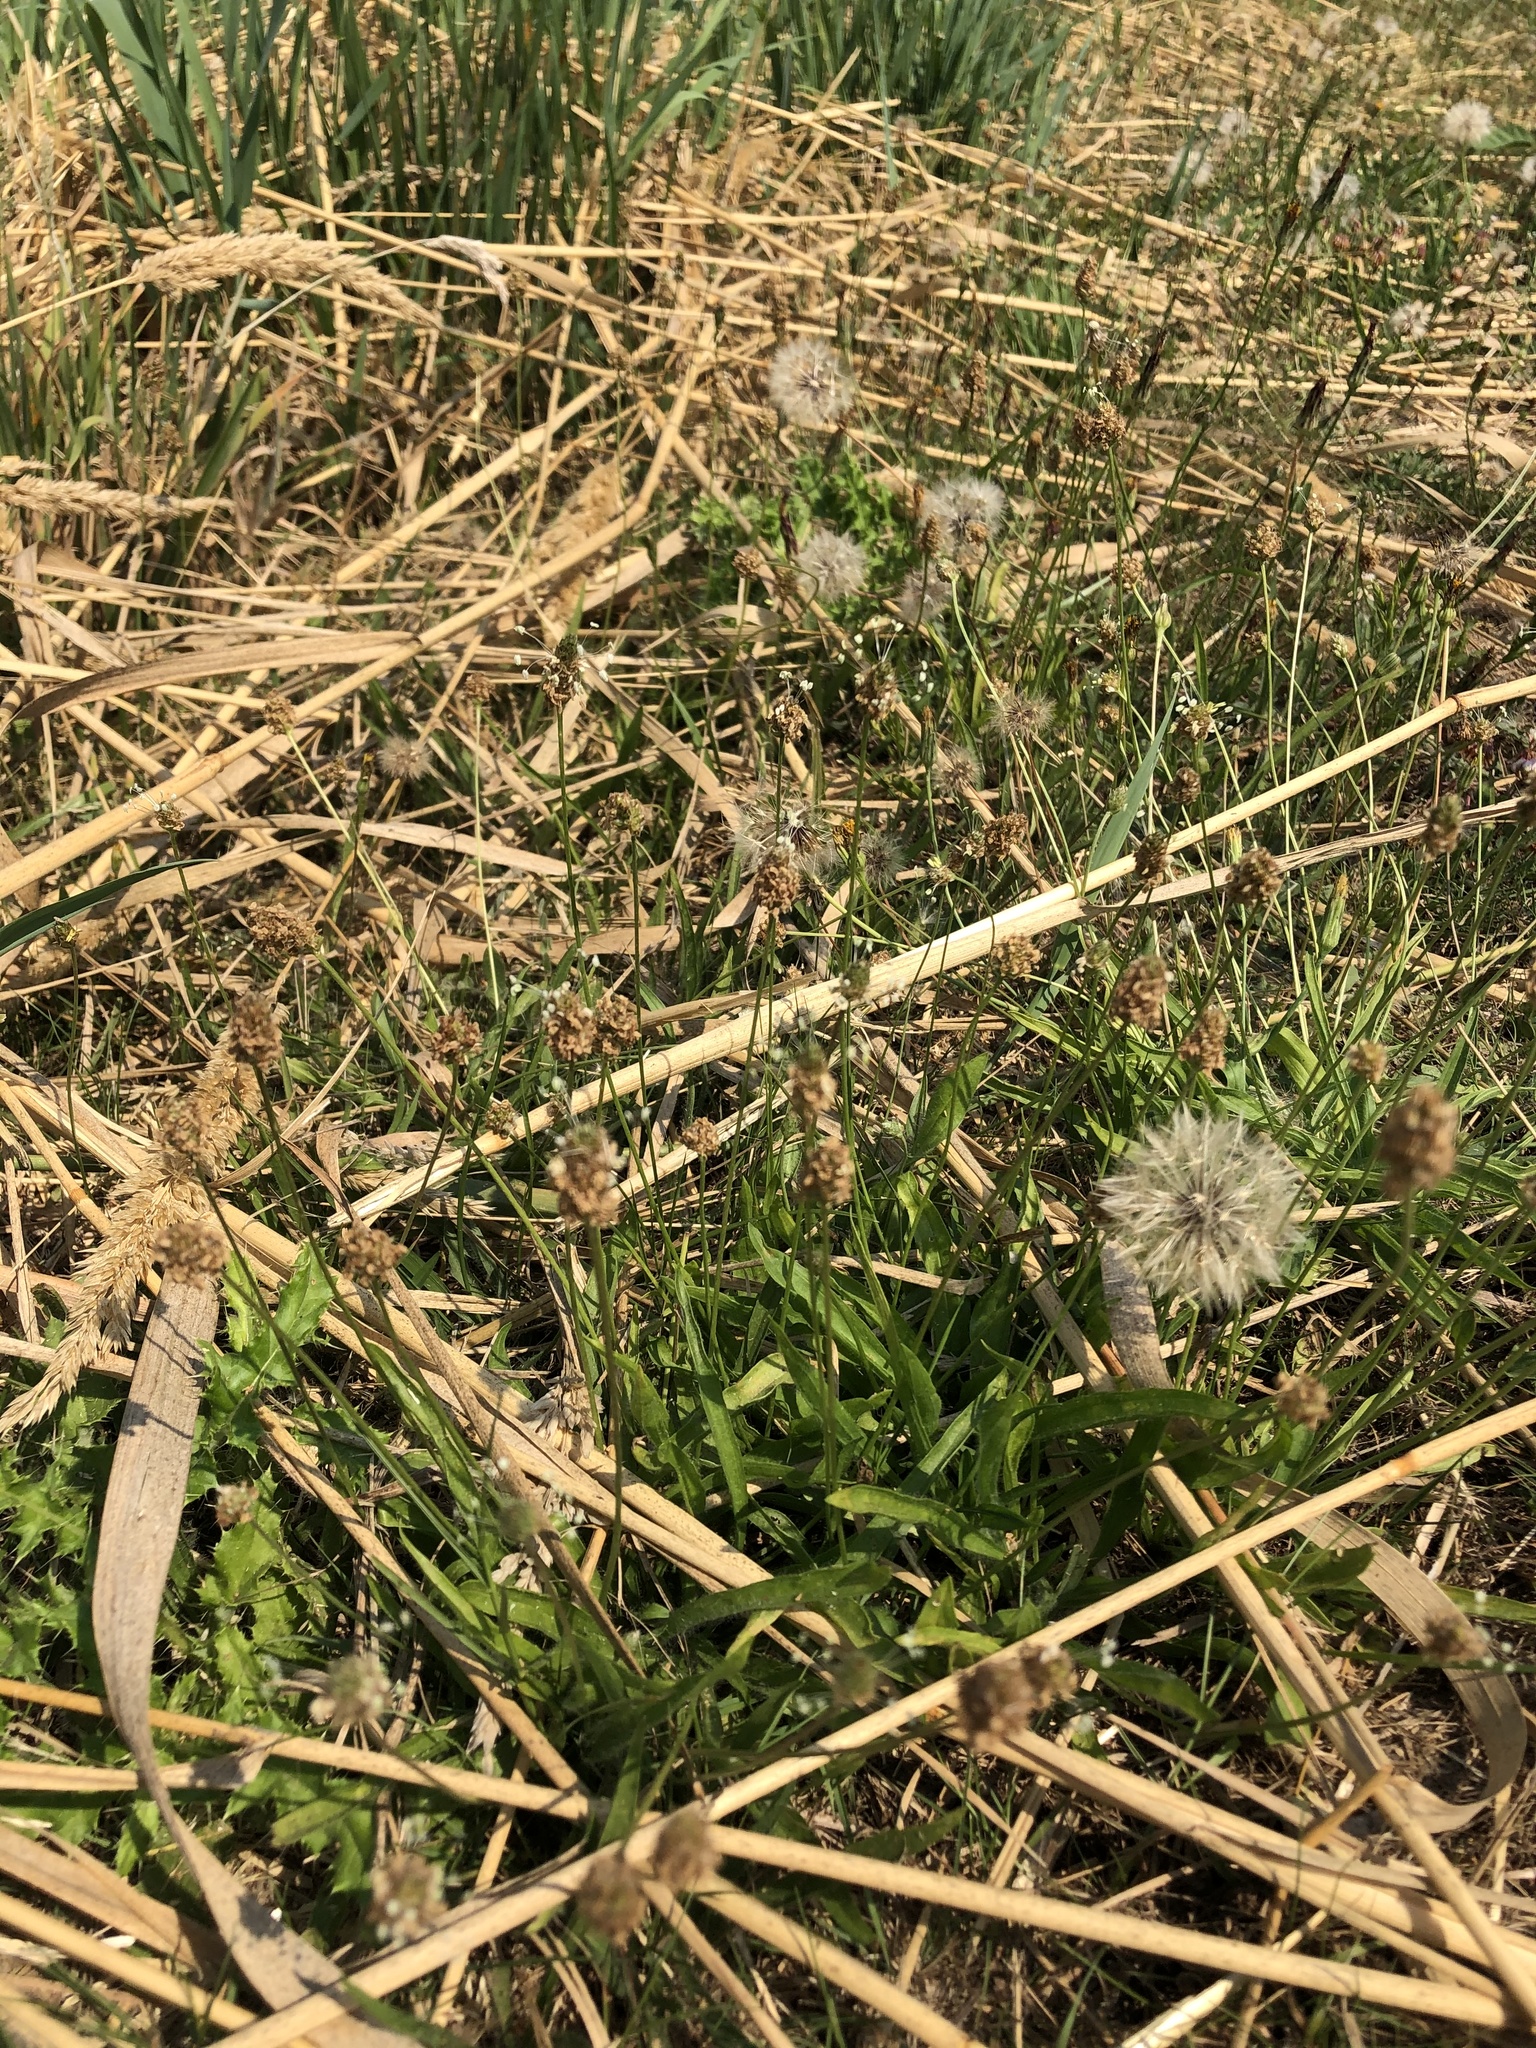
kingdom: Plantae
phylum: Tracheophyta
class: Magnoliopsida
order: Lamiales
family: Plantaginaceae
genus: Plantago
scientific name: Plantago lanceolata
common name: Ribwort plantain
